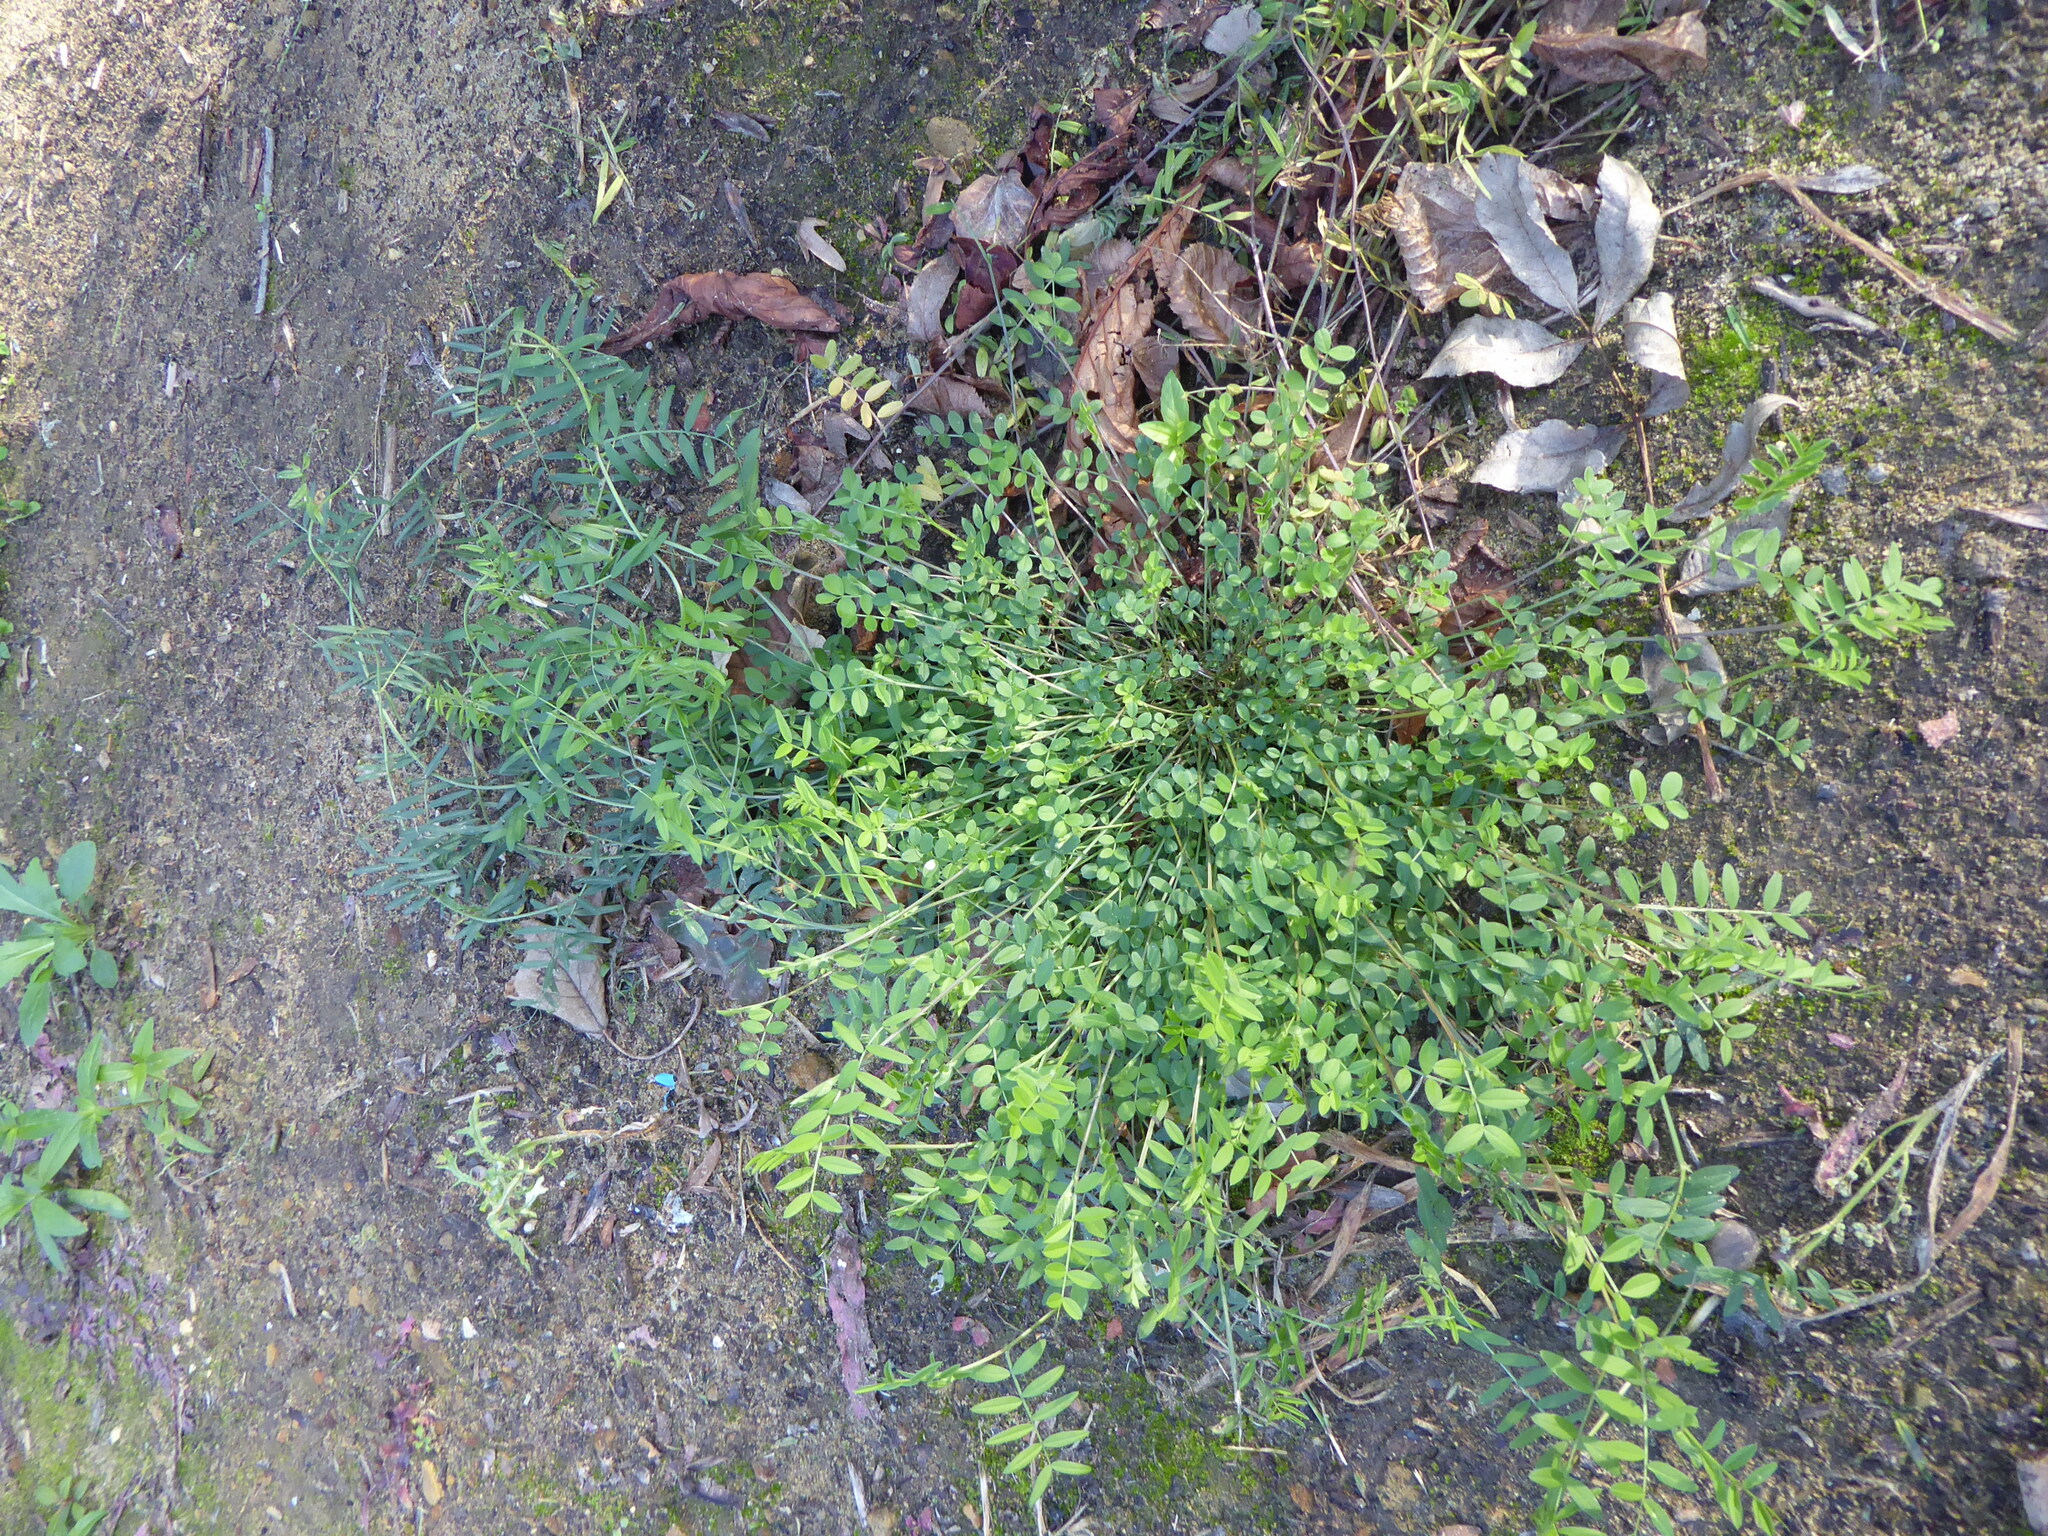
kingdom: Plantae
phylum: Tracheophyta
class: Magnoliopsida
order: Fabales
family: Fabaceae
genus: Galega
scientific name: Galega officinalis
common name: Goat's-rue
